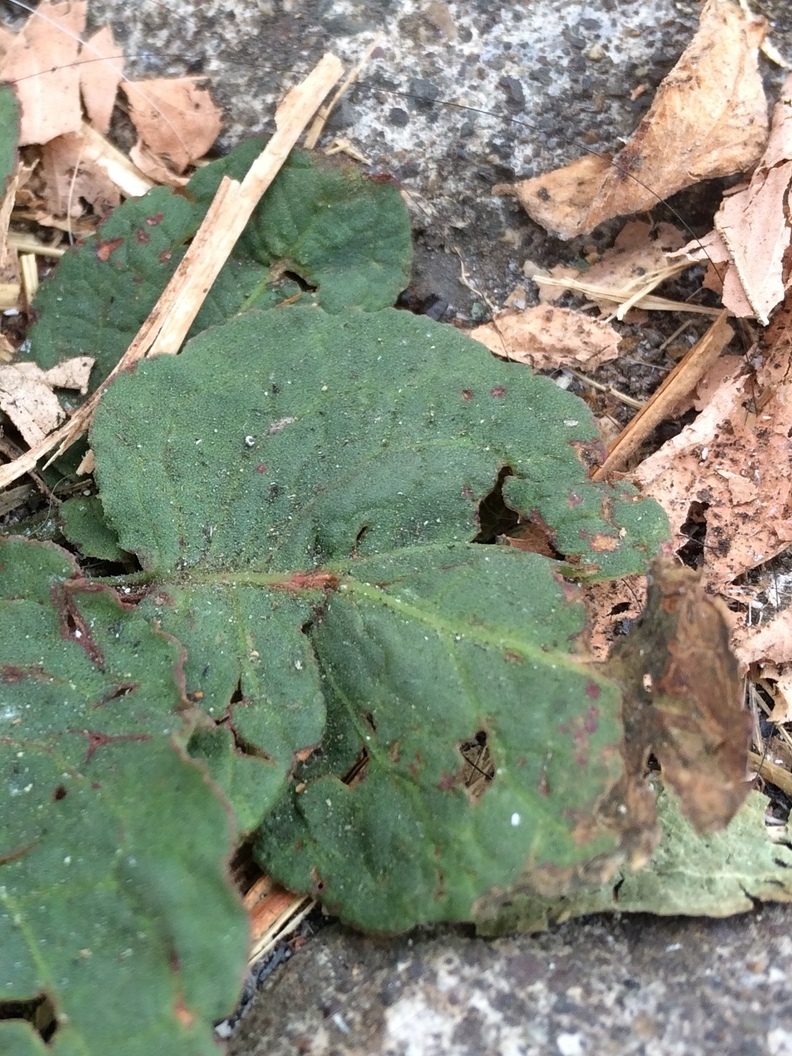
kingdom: Fungi
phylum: Ascomycota
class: Dothideomycetes
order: Mycosphaerellales
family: Mycosphaerellaceae
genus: Ramularia
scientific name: Ramularia rubella
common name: Red dock spot
